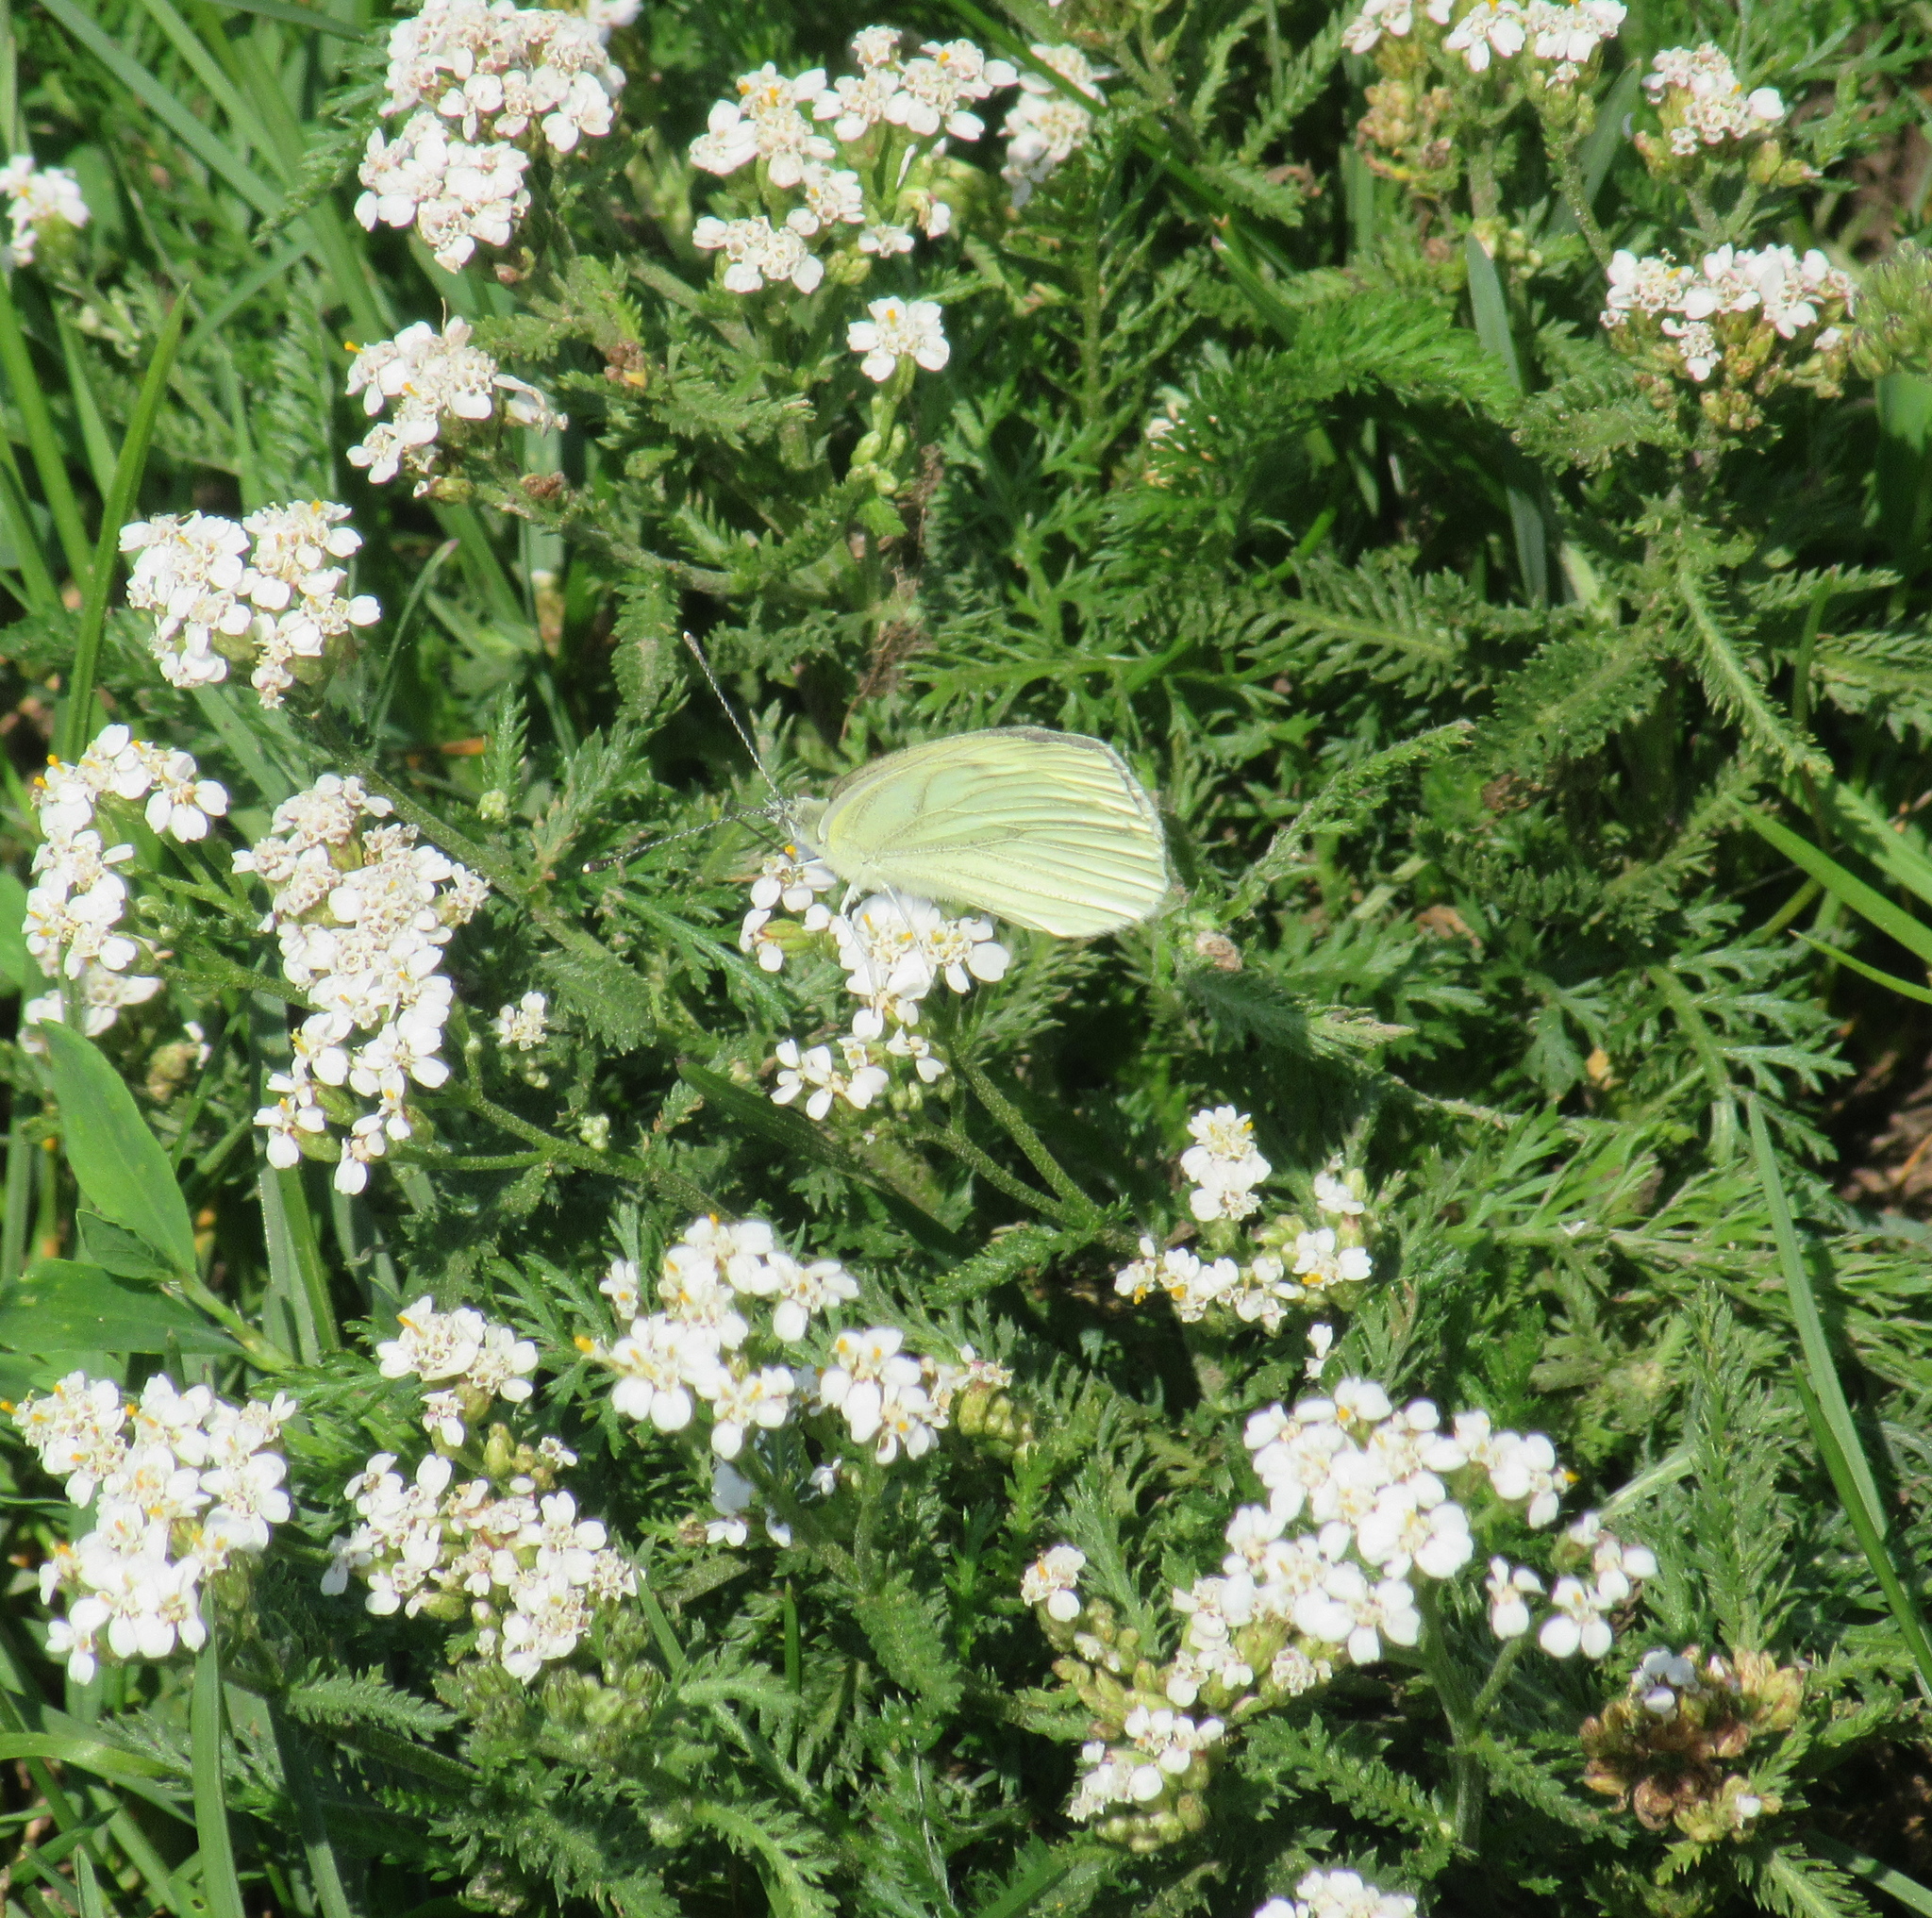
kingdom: Animalia
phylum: Arthropoda
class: Insecta
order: Lepidoptera
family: Pieridae
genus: Pieris
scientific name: Pieris napi
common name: Green-veined white
